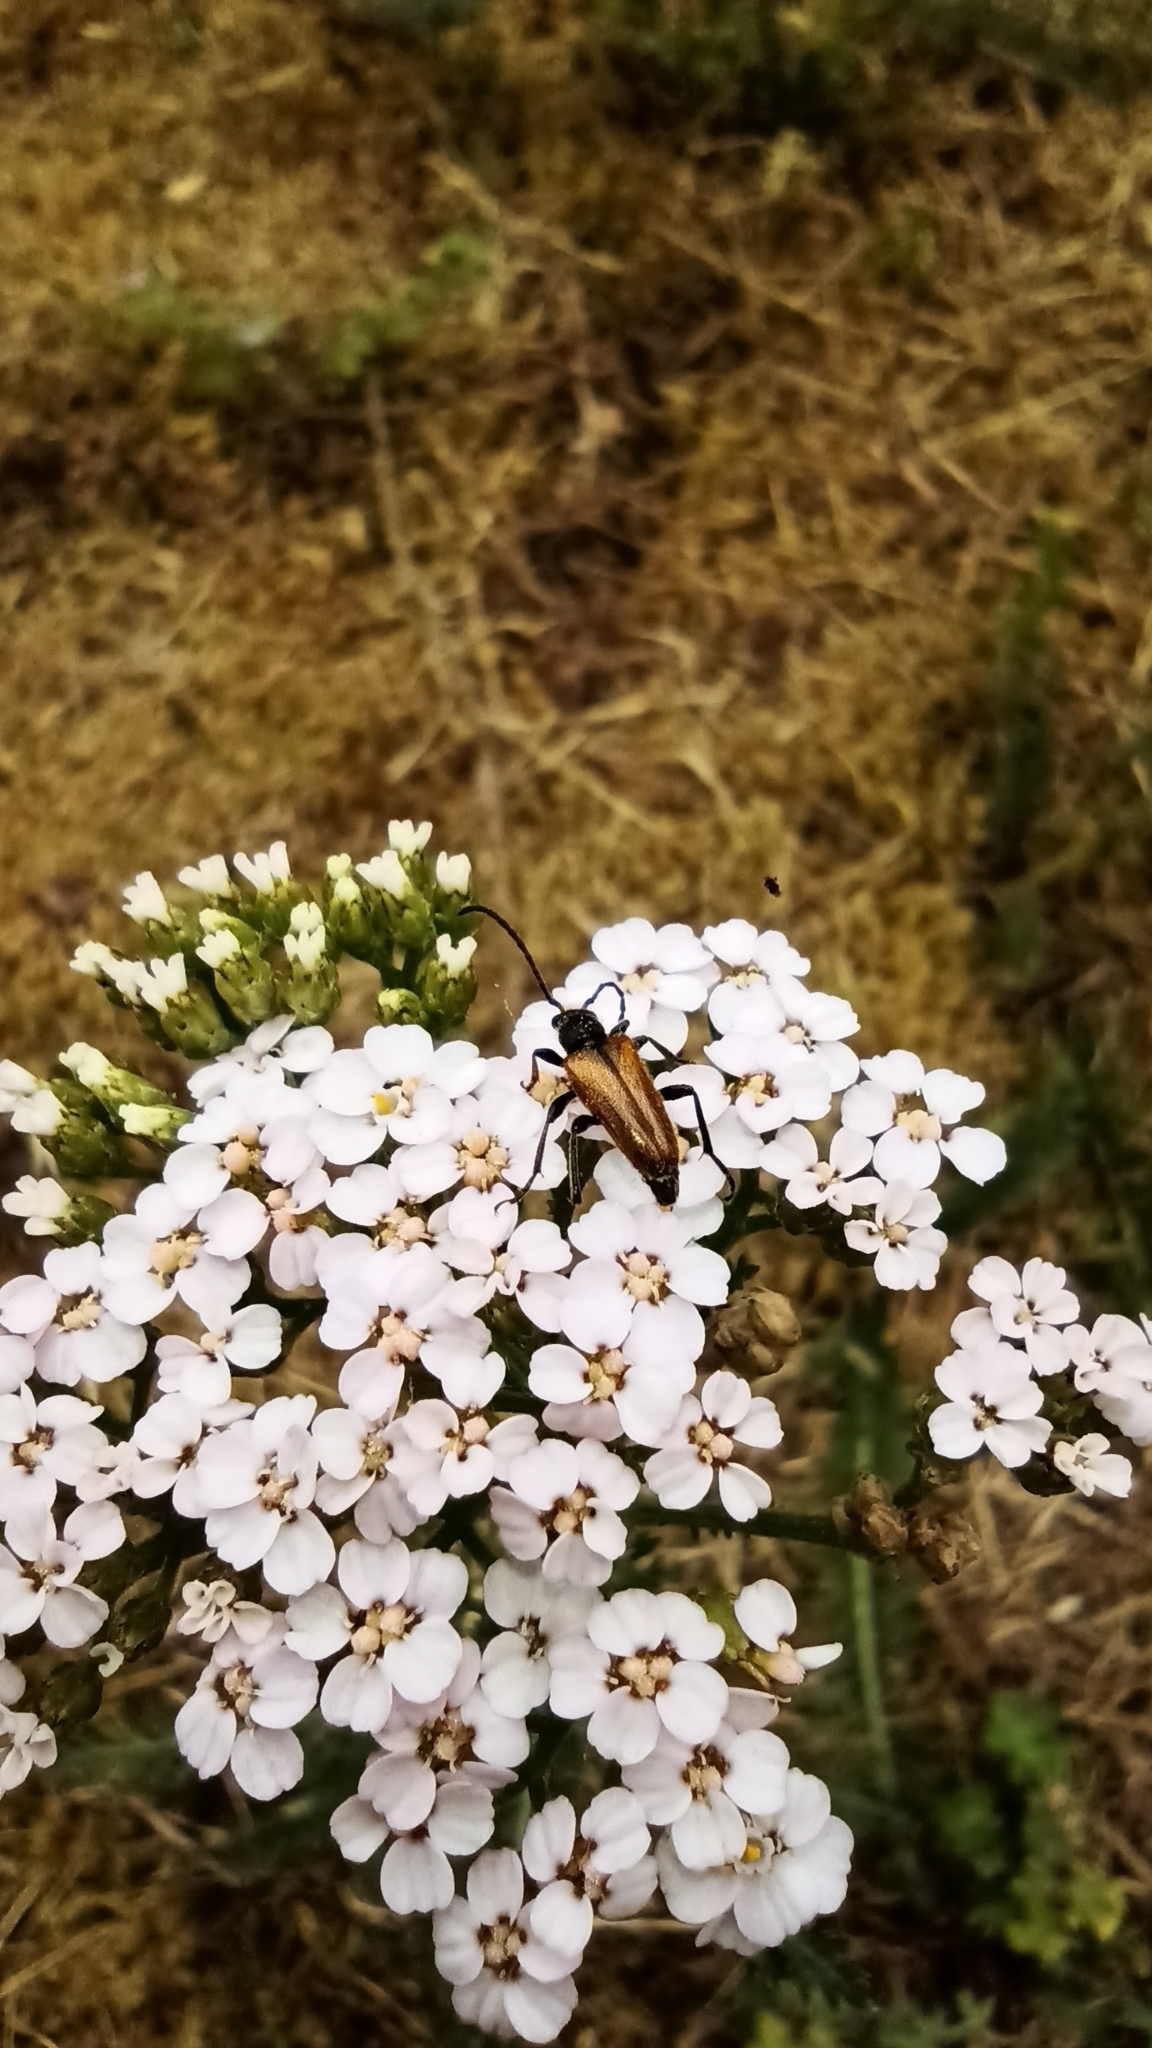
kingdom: Animalia
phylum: Arthropoda
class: Insecta
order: Coleoptera
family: Cerambycidae
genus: Pseudovadonia
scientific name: Pseudovadonia livida
